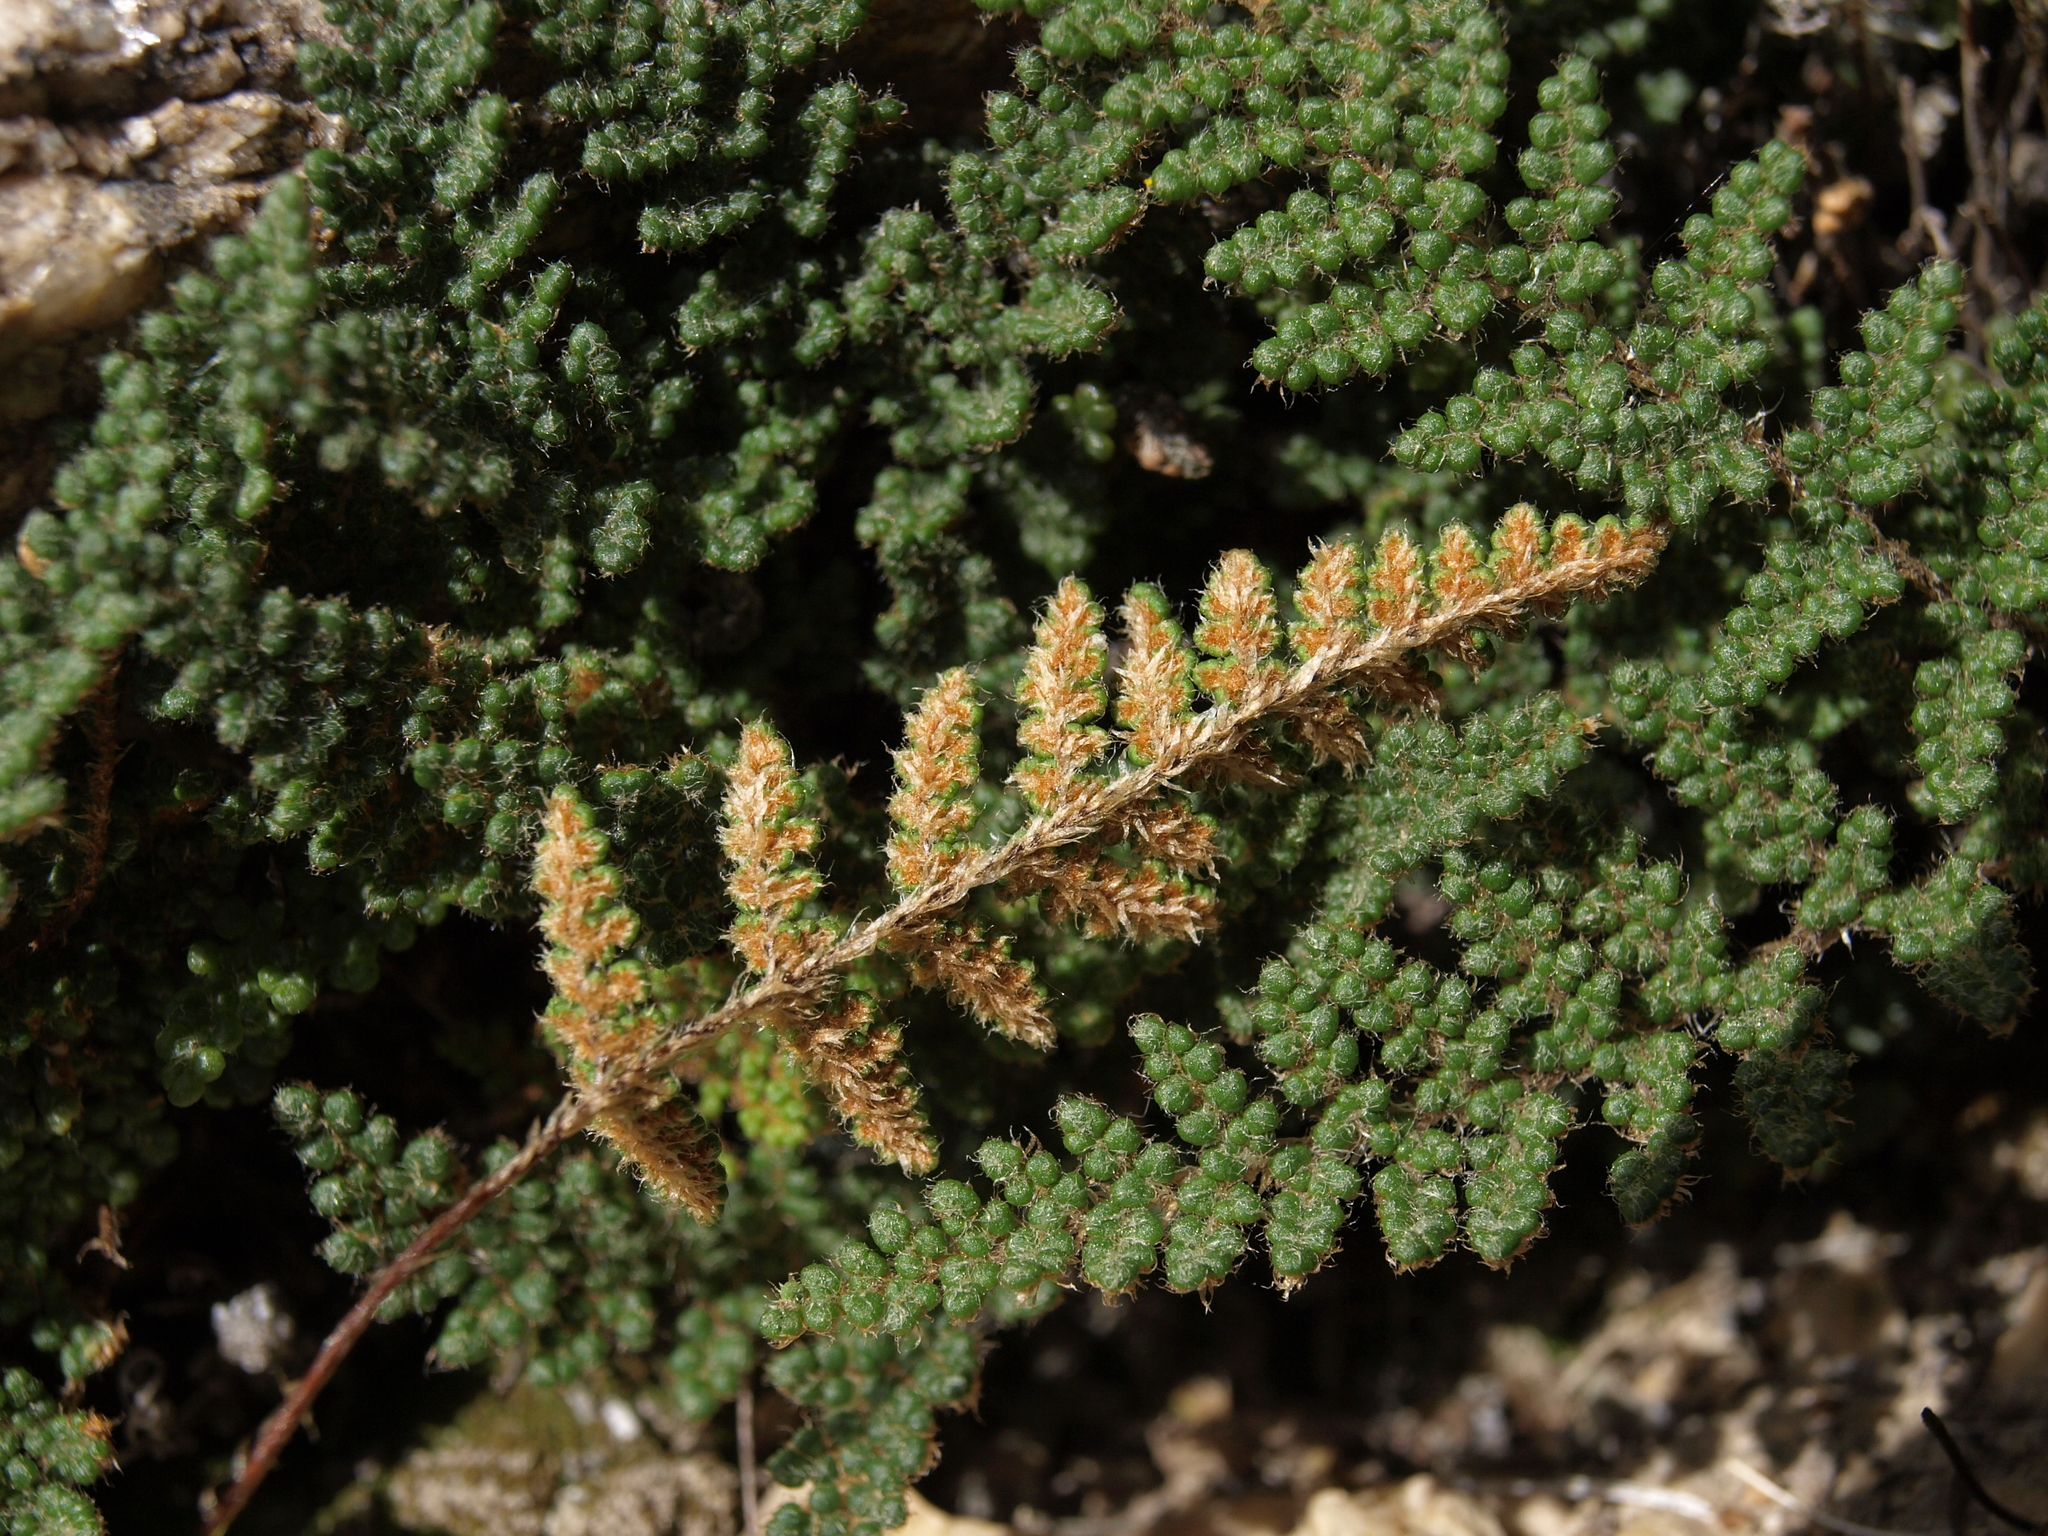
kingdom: Plantae
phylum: Tracheophyta
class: Polypodiopsida
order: Polypodiales
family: Pteridaceae
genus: Myriopteris
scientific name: Myriopteris intertexta
